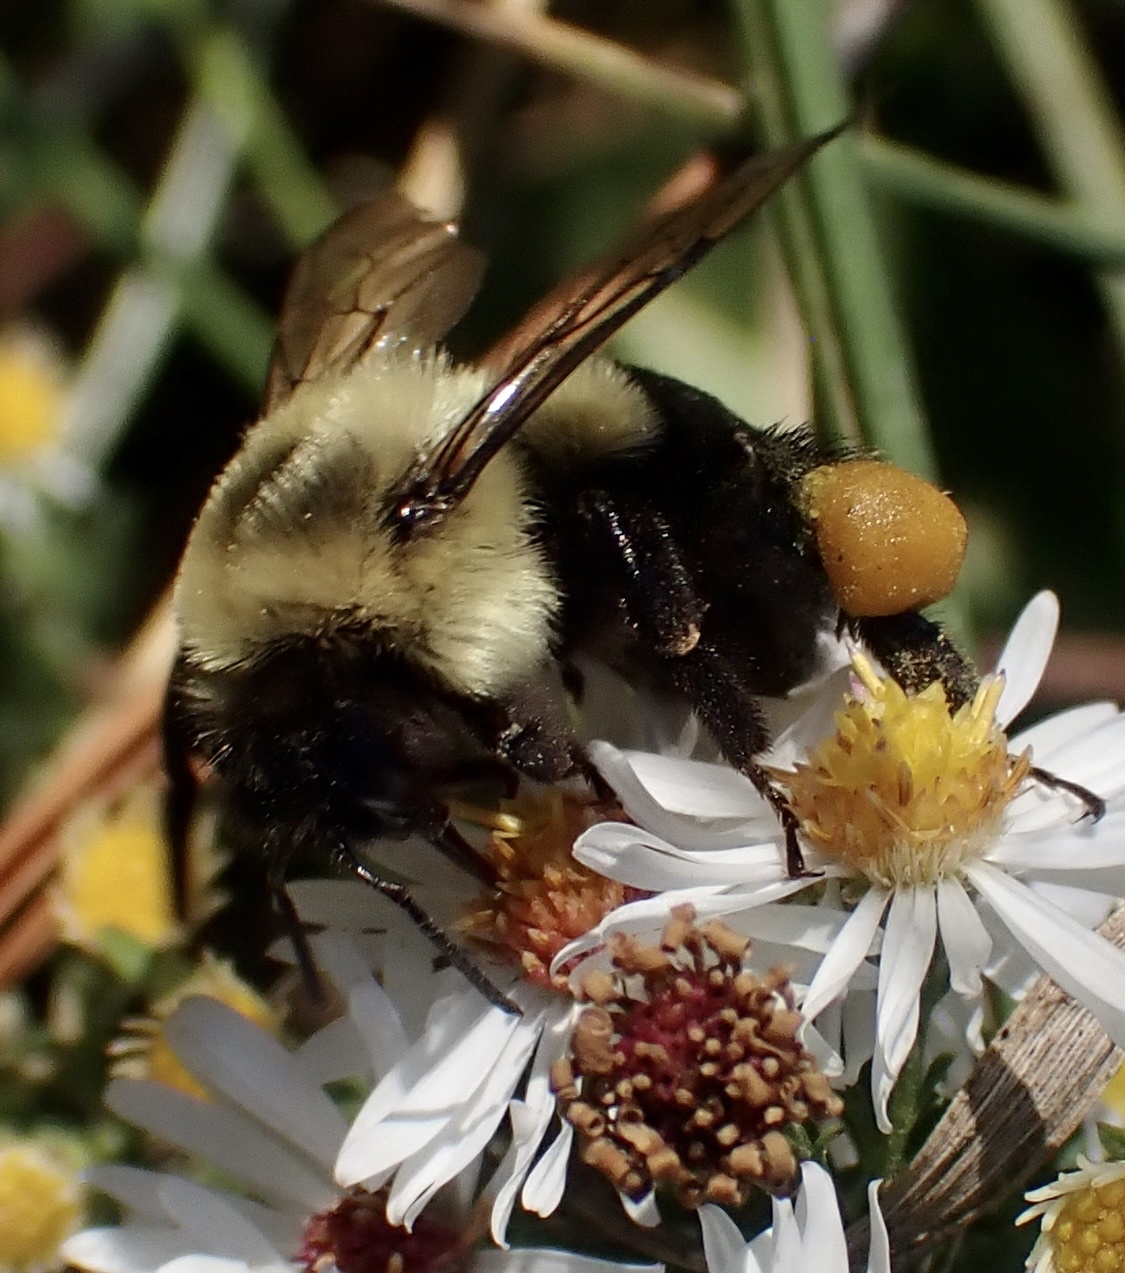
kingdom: Animalia
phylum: Arthropoda
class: Insecta
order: Hymenoptera
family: Apidae
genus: Bombus
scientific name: Bombus impatiens
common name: Common eastern bumble bee
